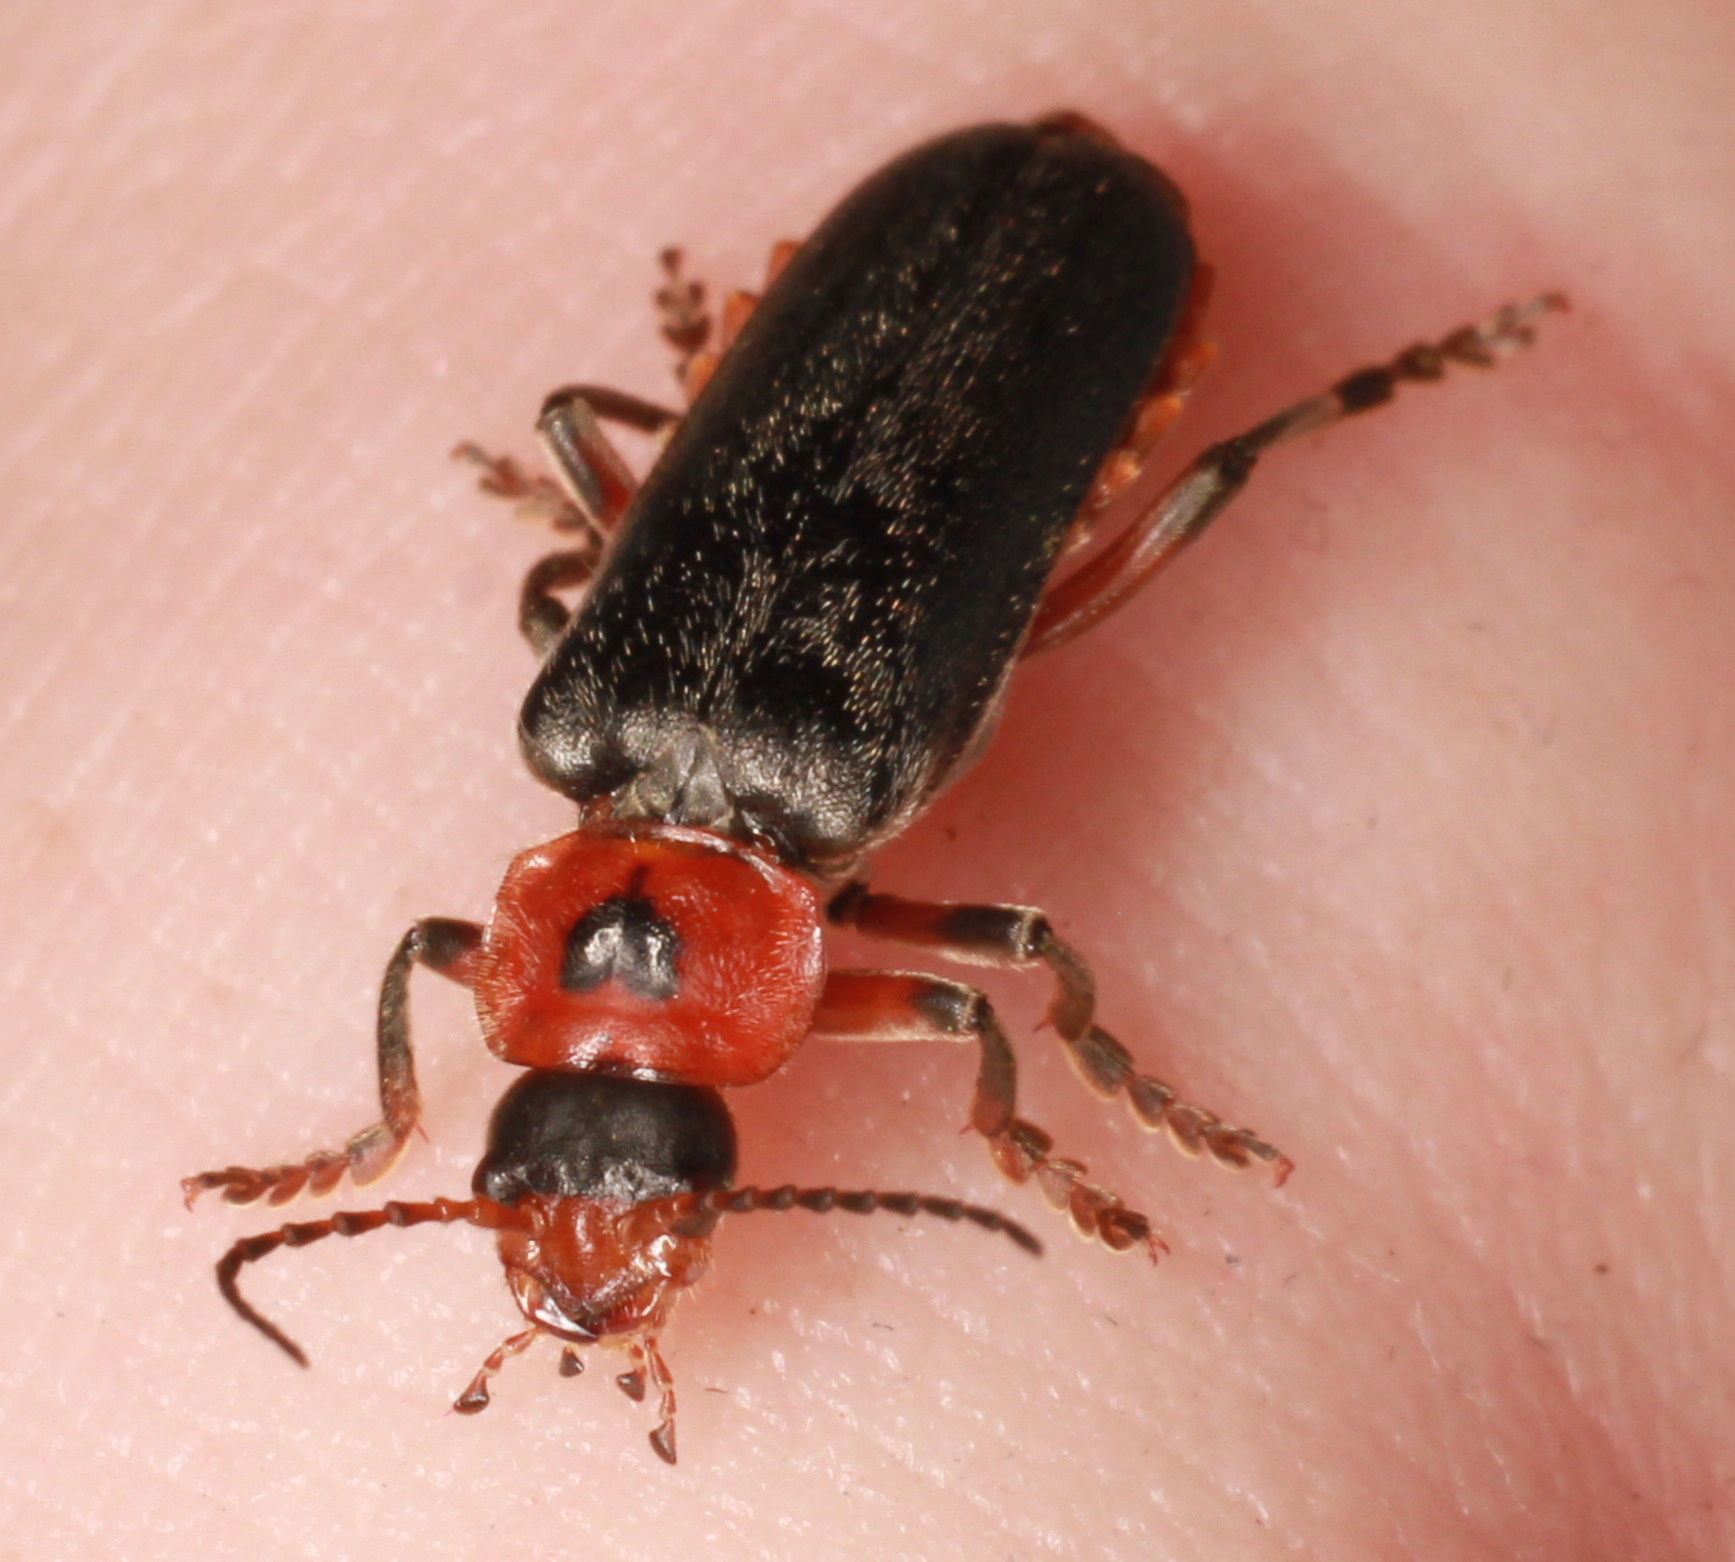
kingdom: Animalia
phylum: Arthropoda
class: Insecta
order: Coleoptera
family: Cantharidae
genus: Cantharis
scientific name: Cantharis rustica
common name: Soldier beetle
